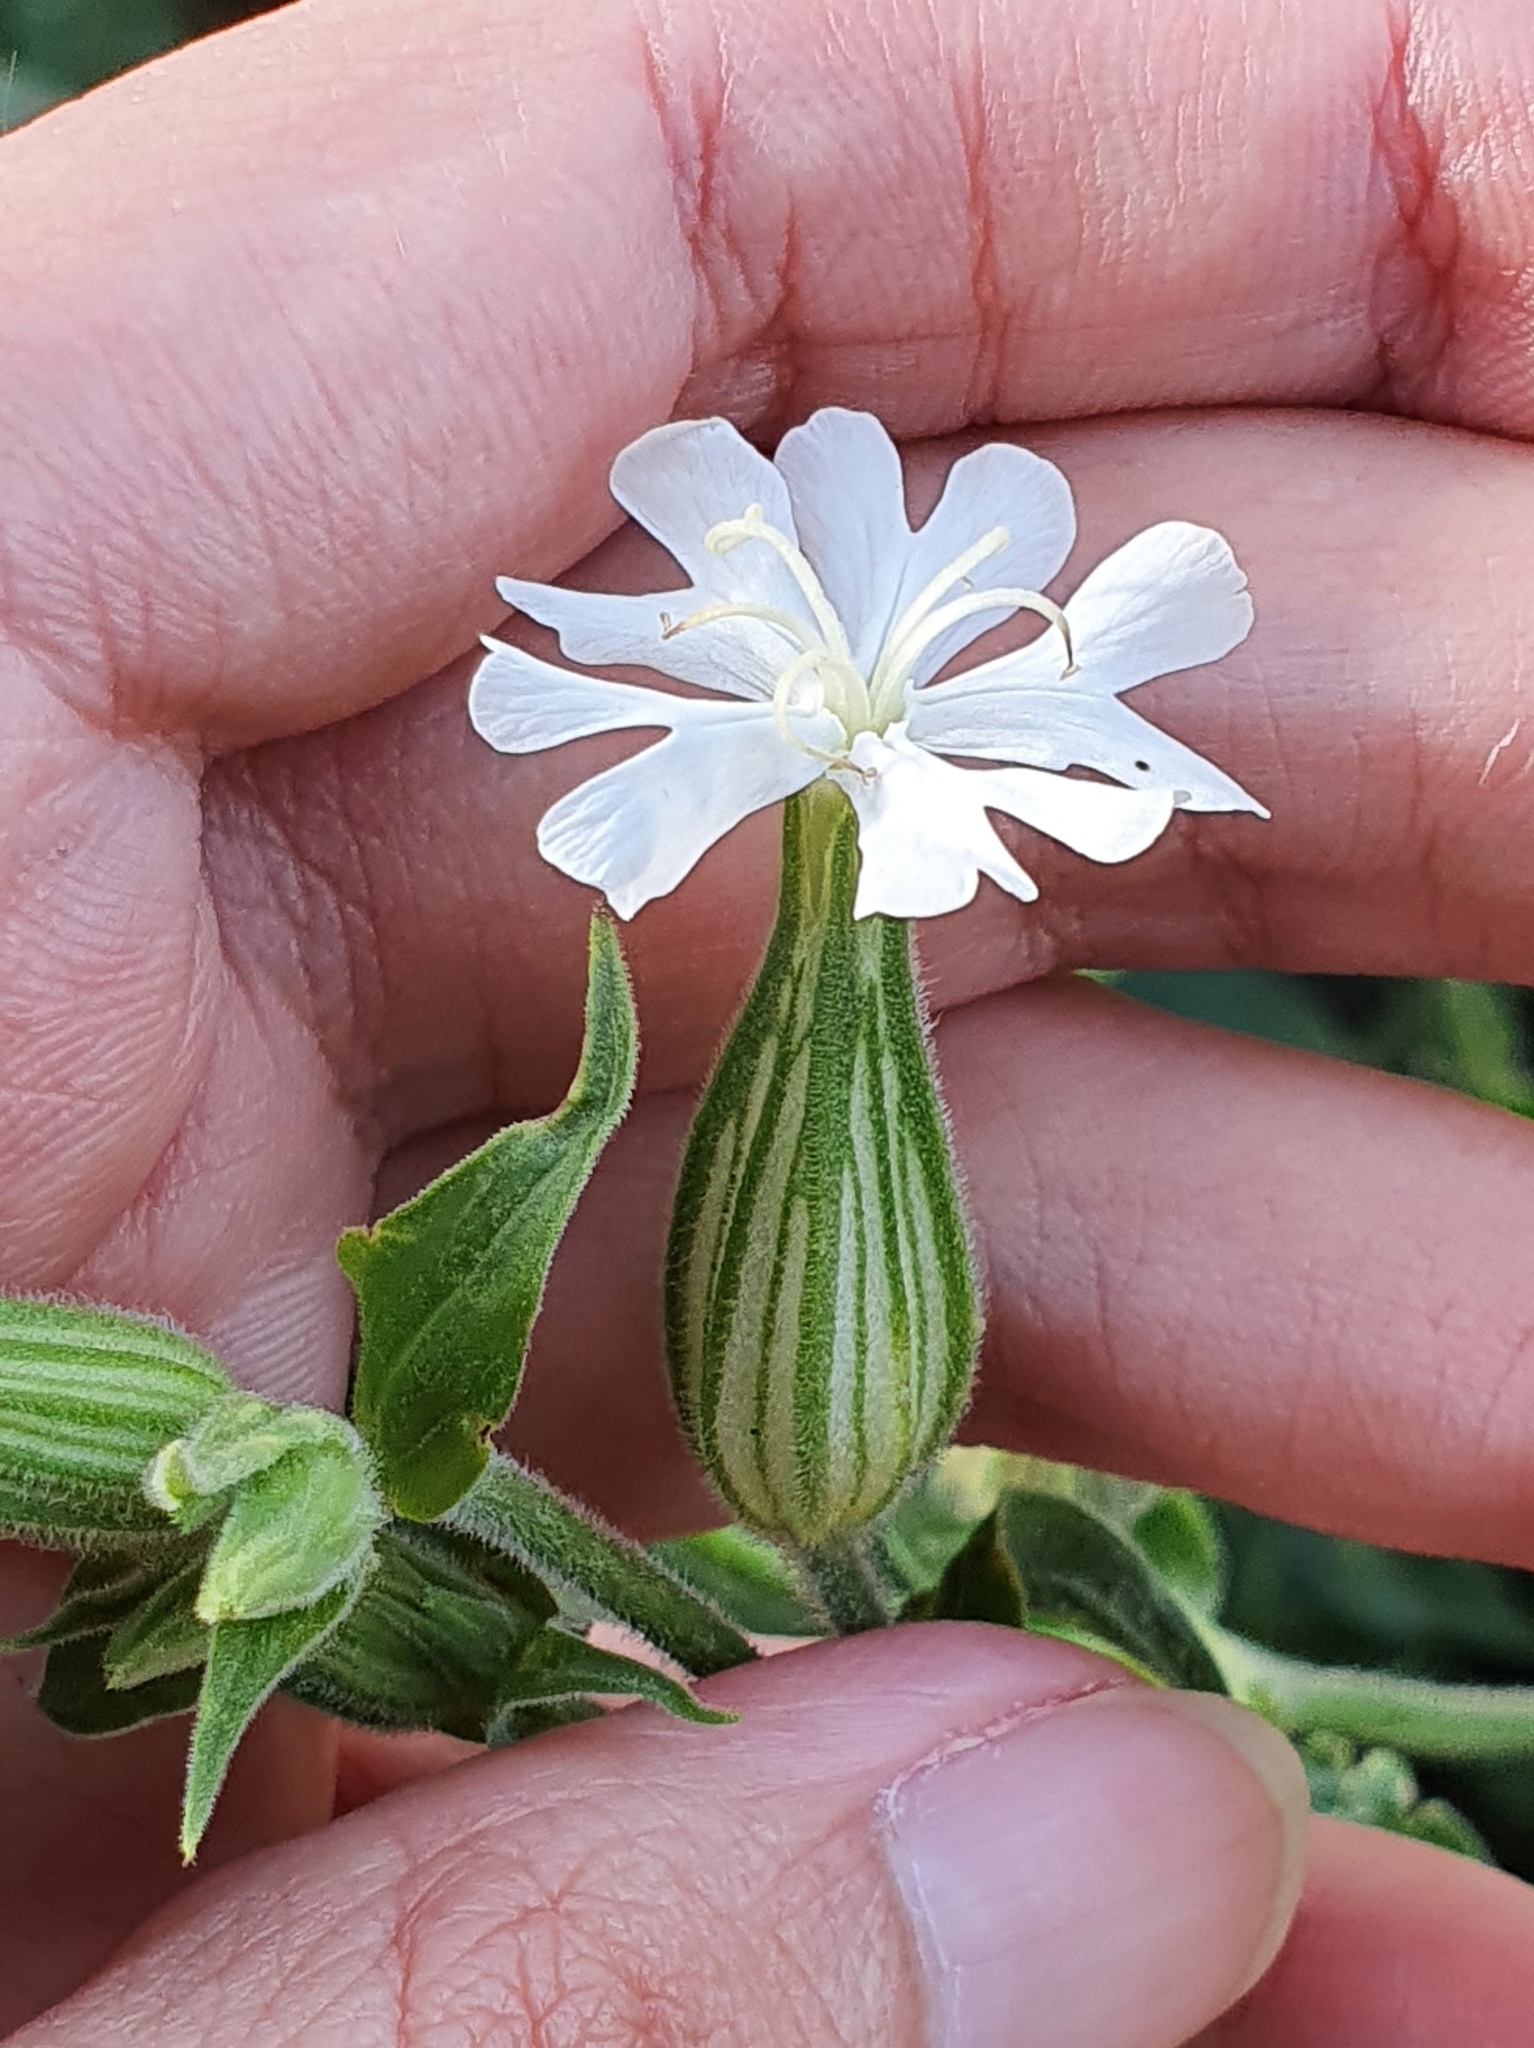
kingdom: Plantae
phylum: Tracheophyta
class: Magnoliopsida
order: Caryophyllales
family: Caryophyllaceae
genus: Silene
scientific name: Silene latifolia
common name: White campion
